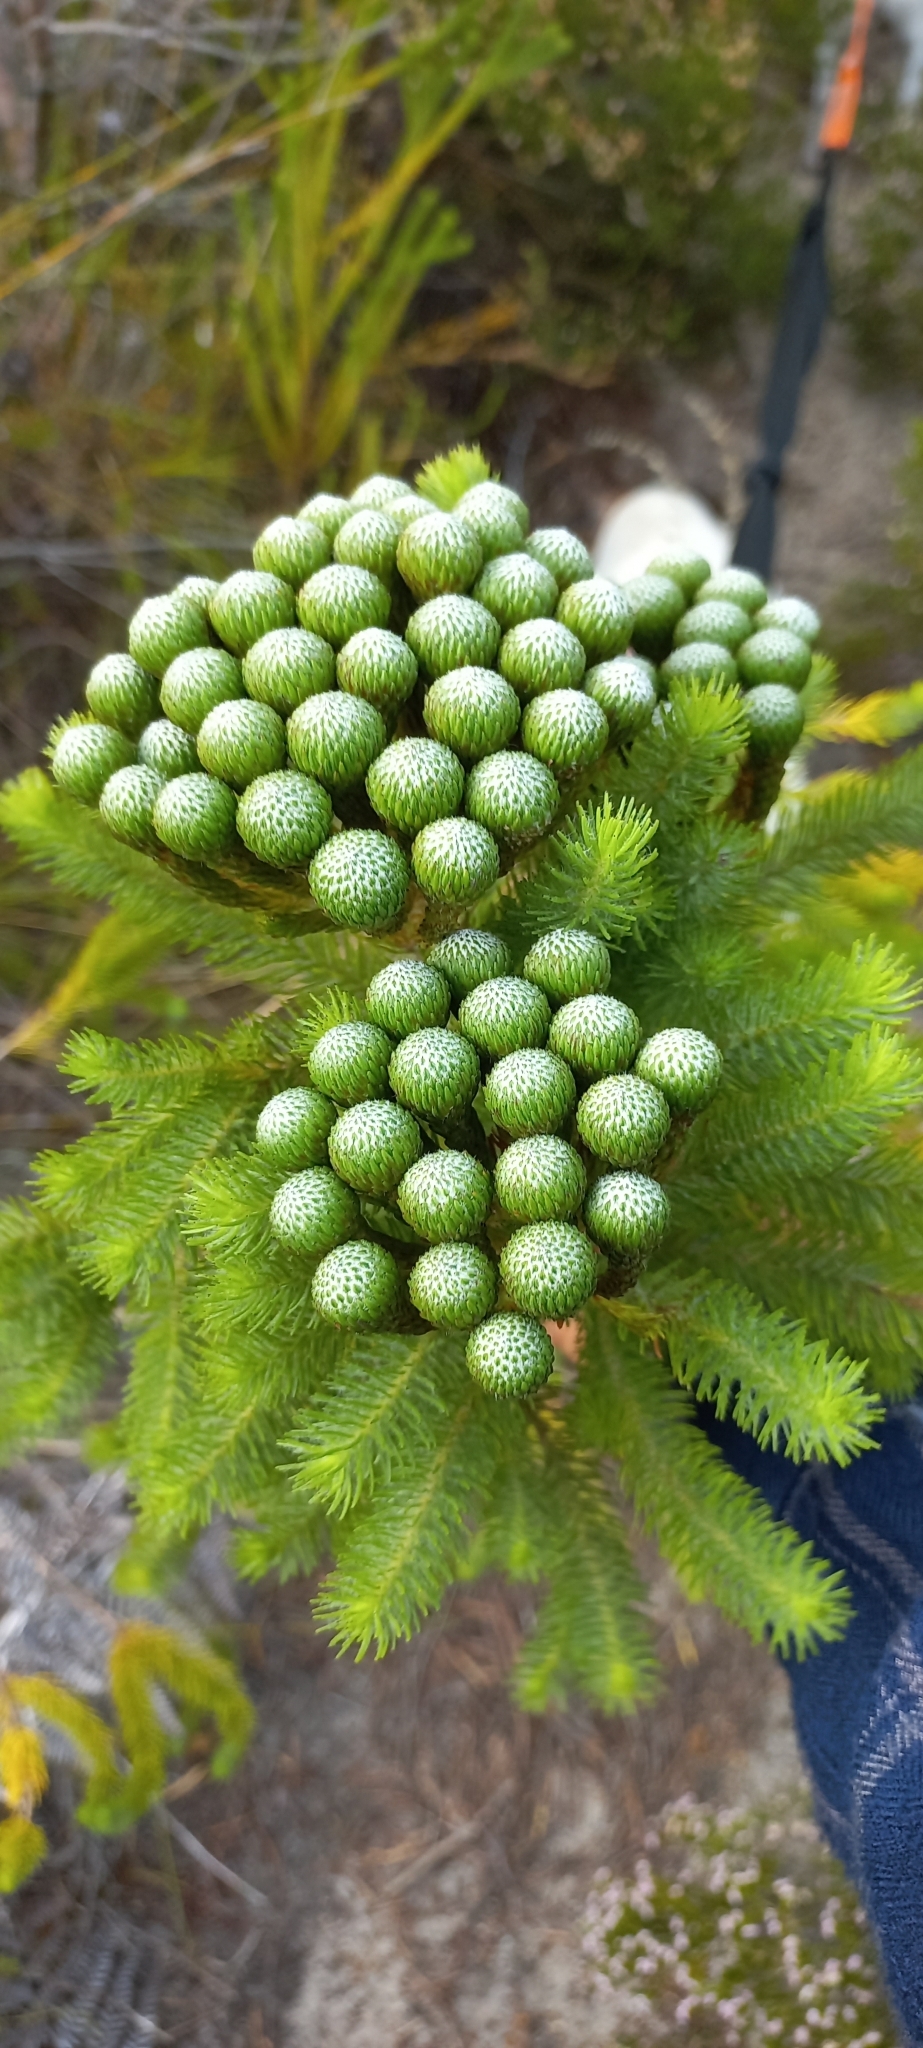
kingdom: Plantae
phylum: Tracheophyta
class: Magnoliopsida
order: Bruniales
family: Bruniaceae
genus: Berzelia
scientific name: Berzelia albiflora
